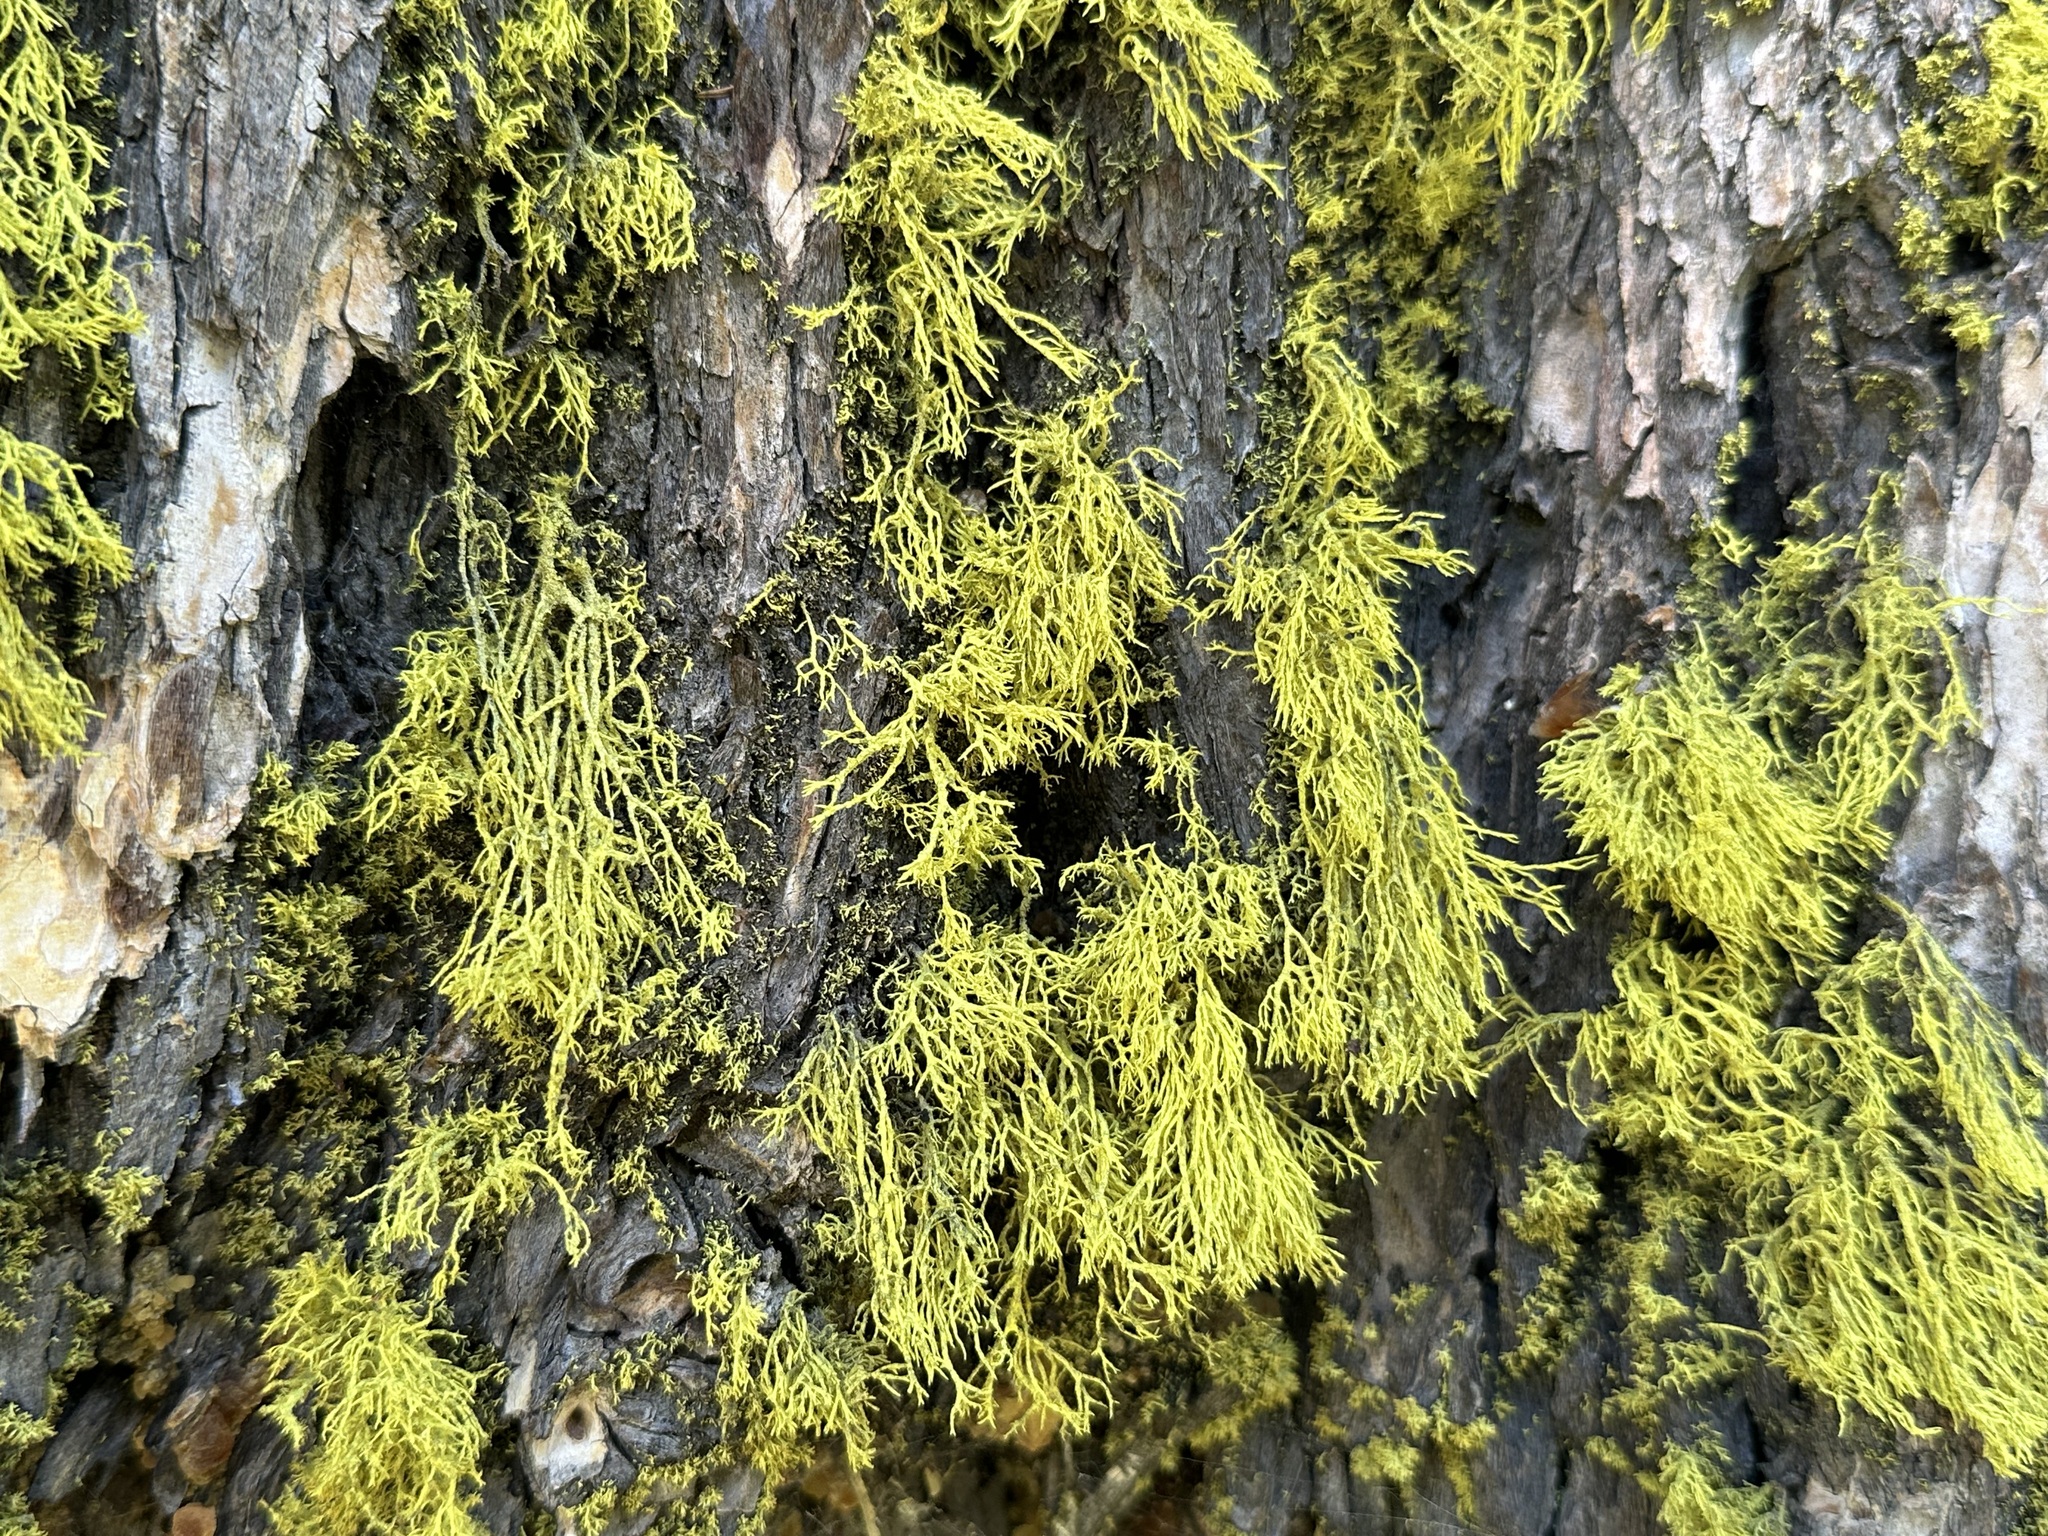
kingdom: Fungi
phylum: Ascomycota
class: Lecanoromycetes
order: Lecanorales
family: Parmeliaceae
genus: Letharia
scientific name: Letharia vulpina
